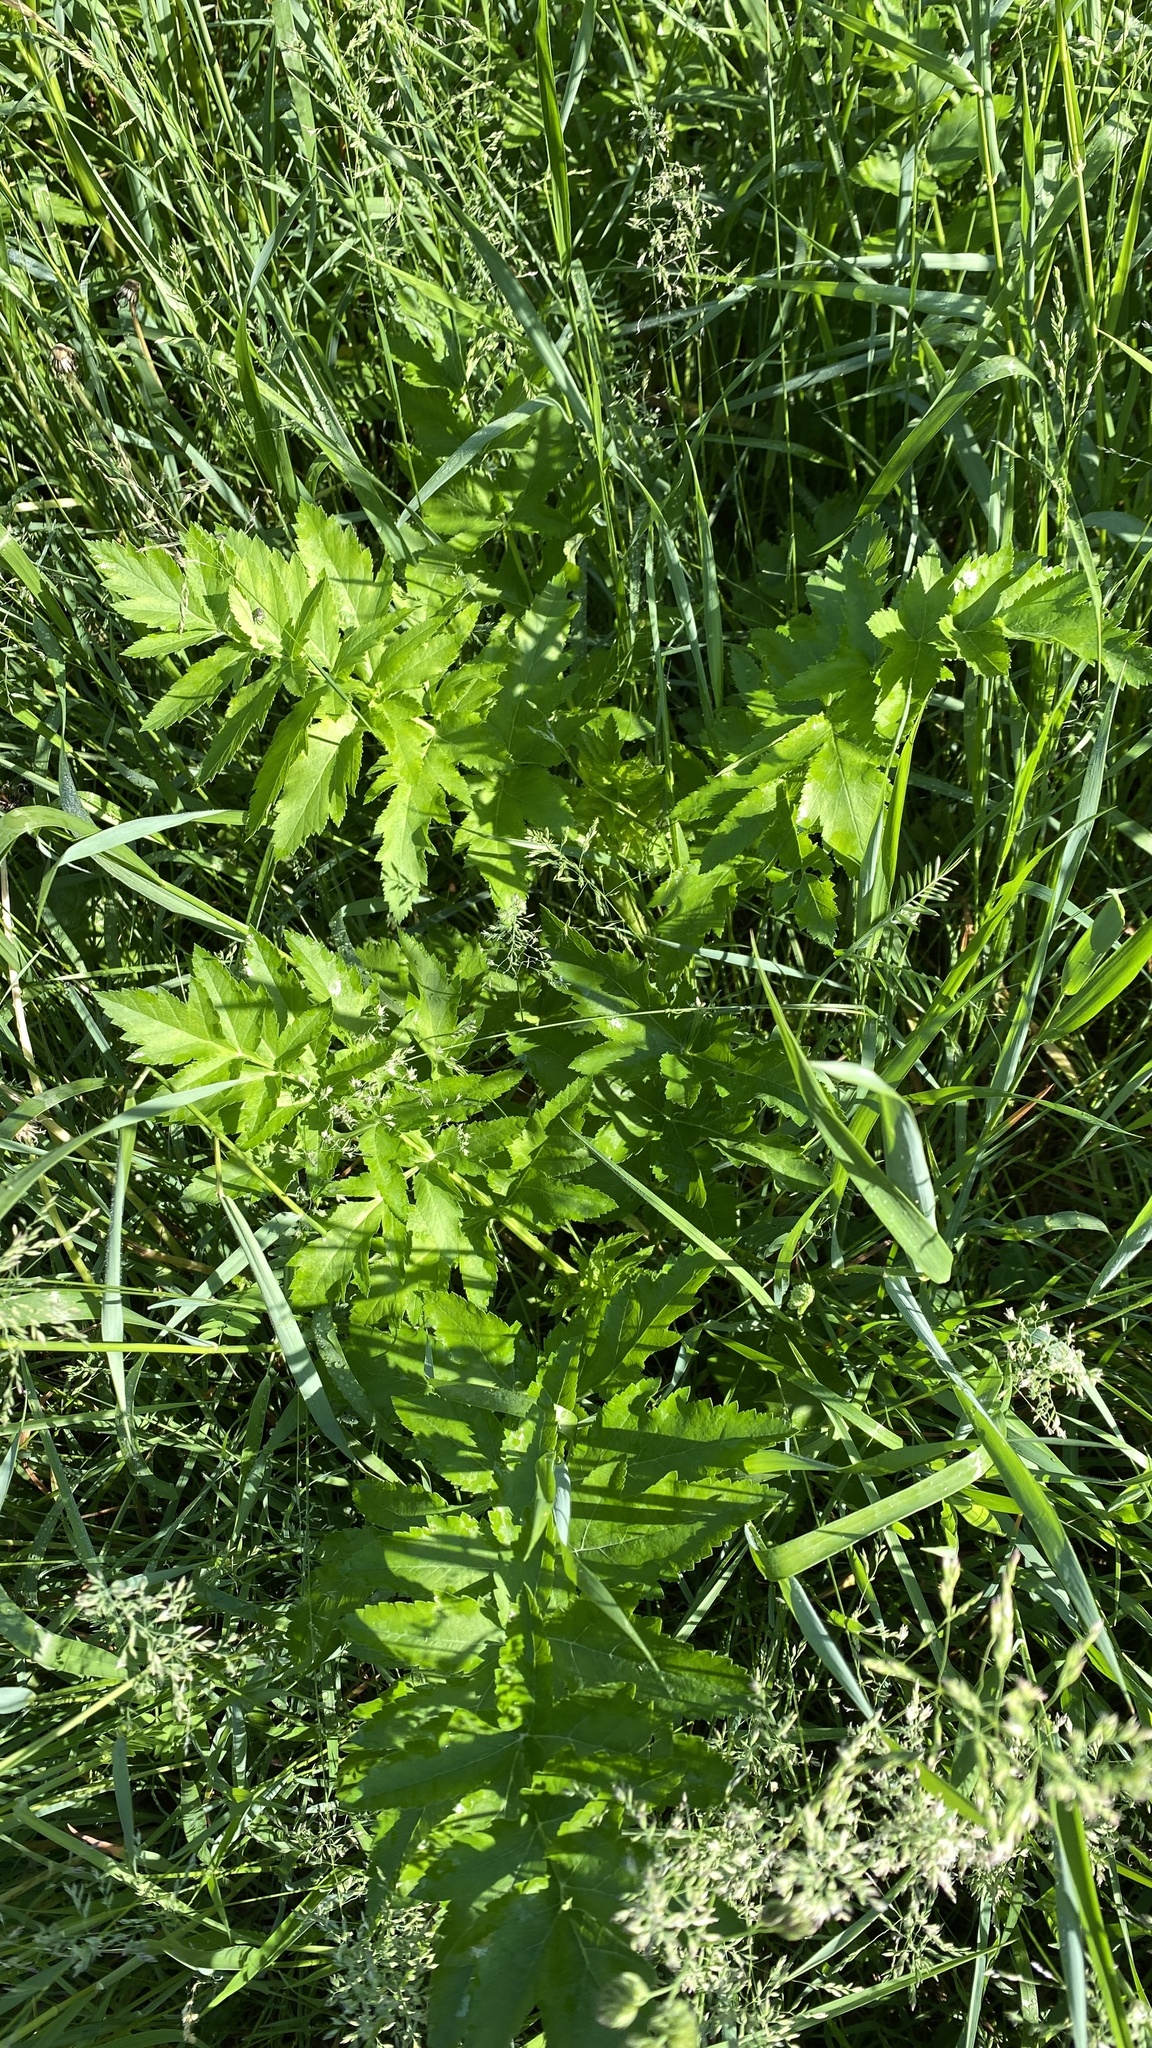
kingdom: Plantae
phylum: Tracheophyta
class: Magnoliopsida
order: Apiales
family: Apiaceae
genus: Pastinaca
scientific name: Pastinaca sativa
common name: Wild parsnip
